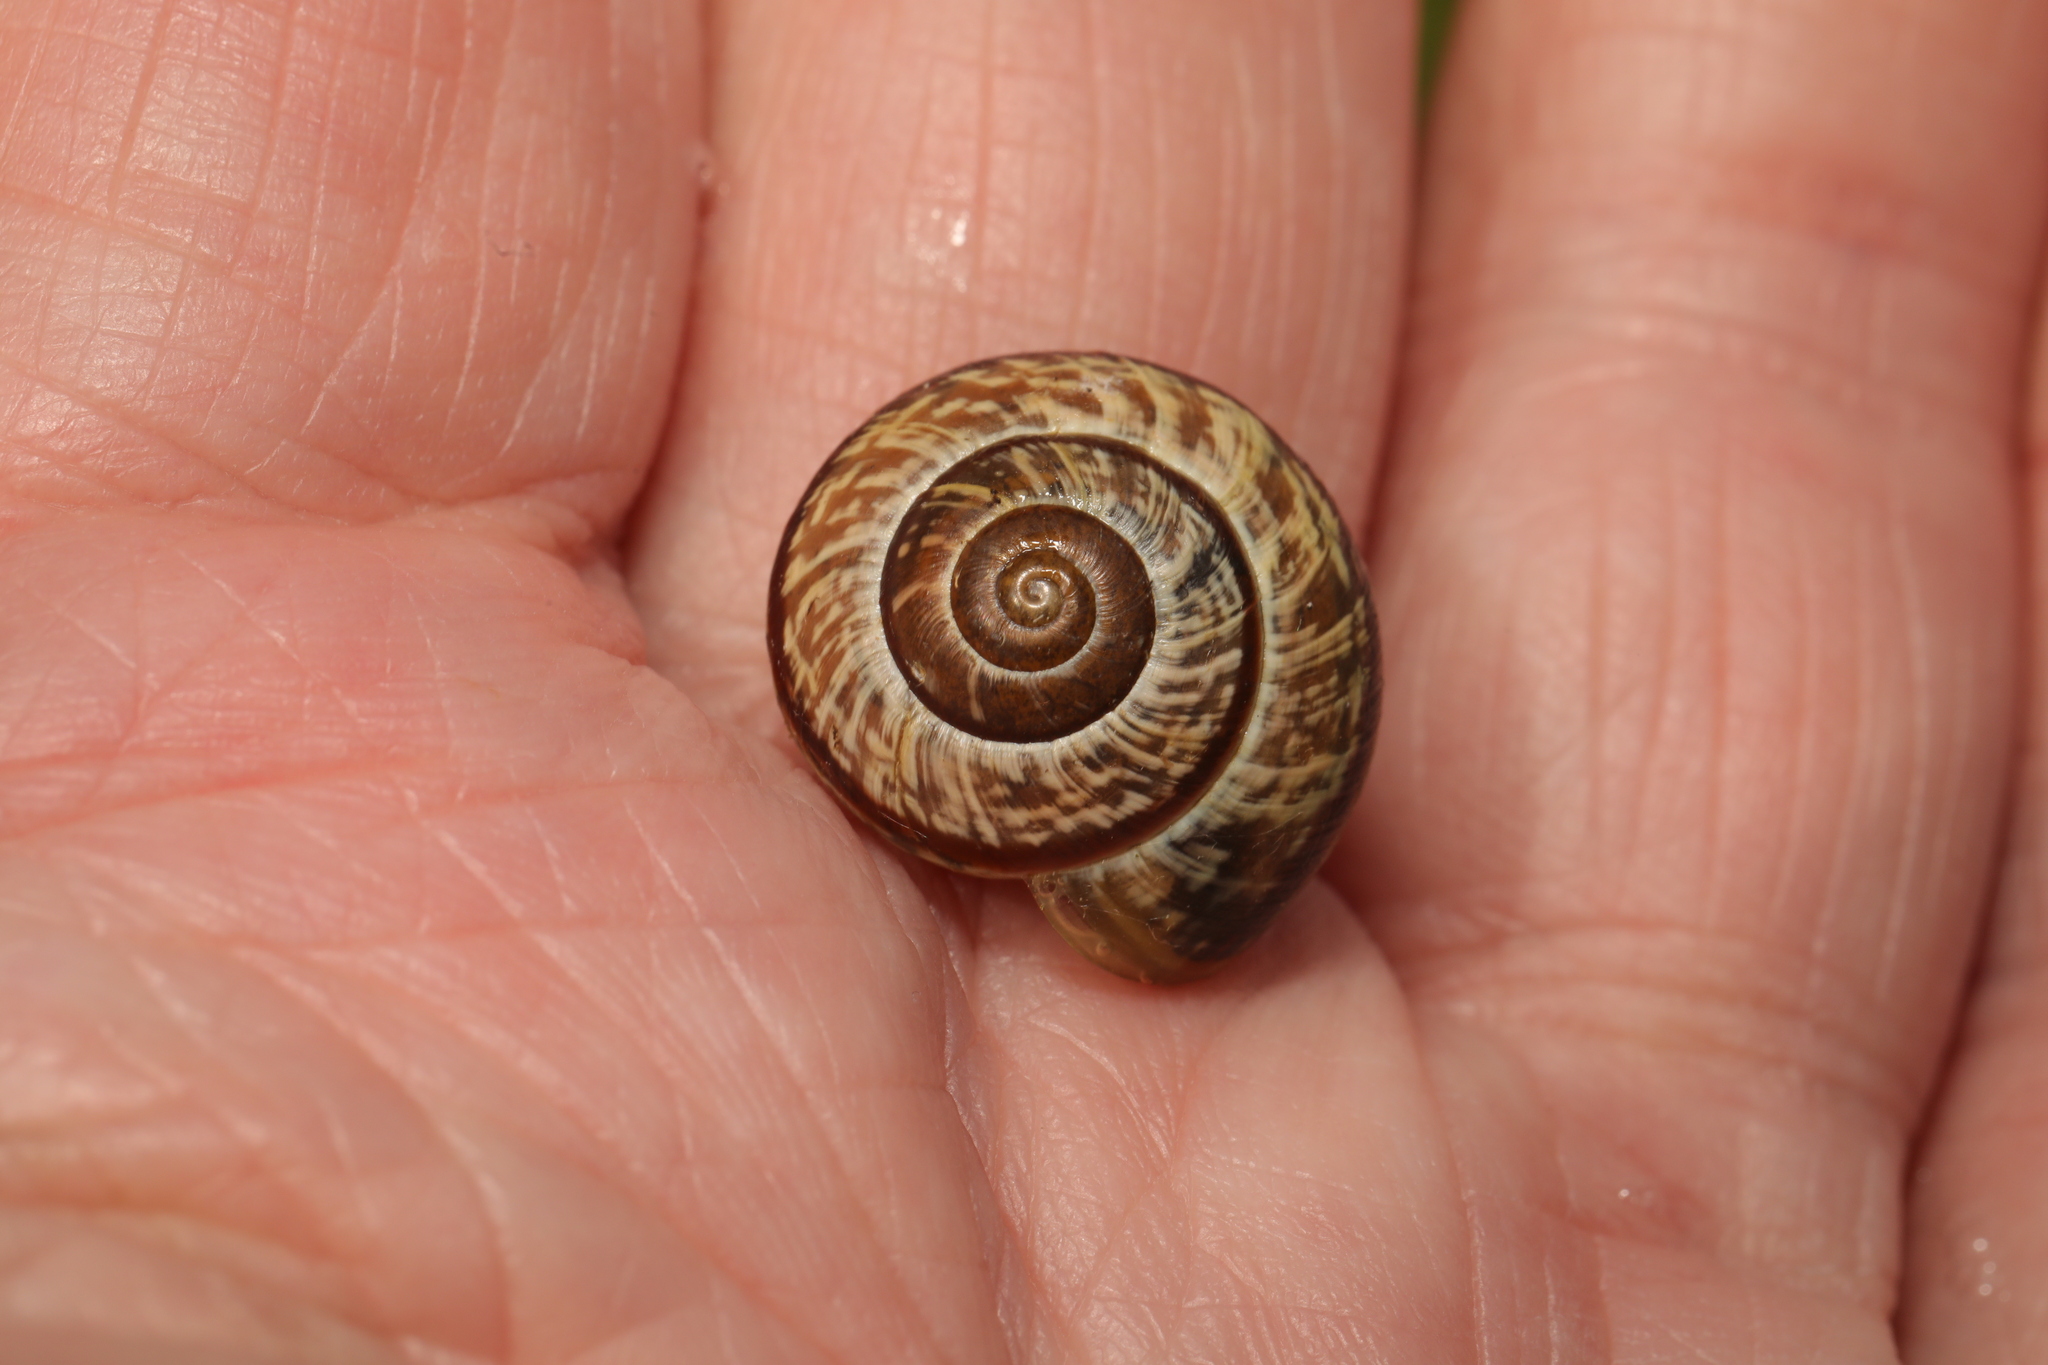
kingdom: Animalia
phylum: Mollusca
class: Gastropoda
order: Stylommatophora
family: Helicidae
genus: Arianta
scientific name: Arianta arbustorum
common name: Copse snail
